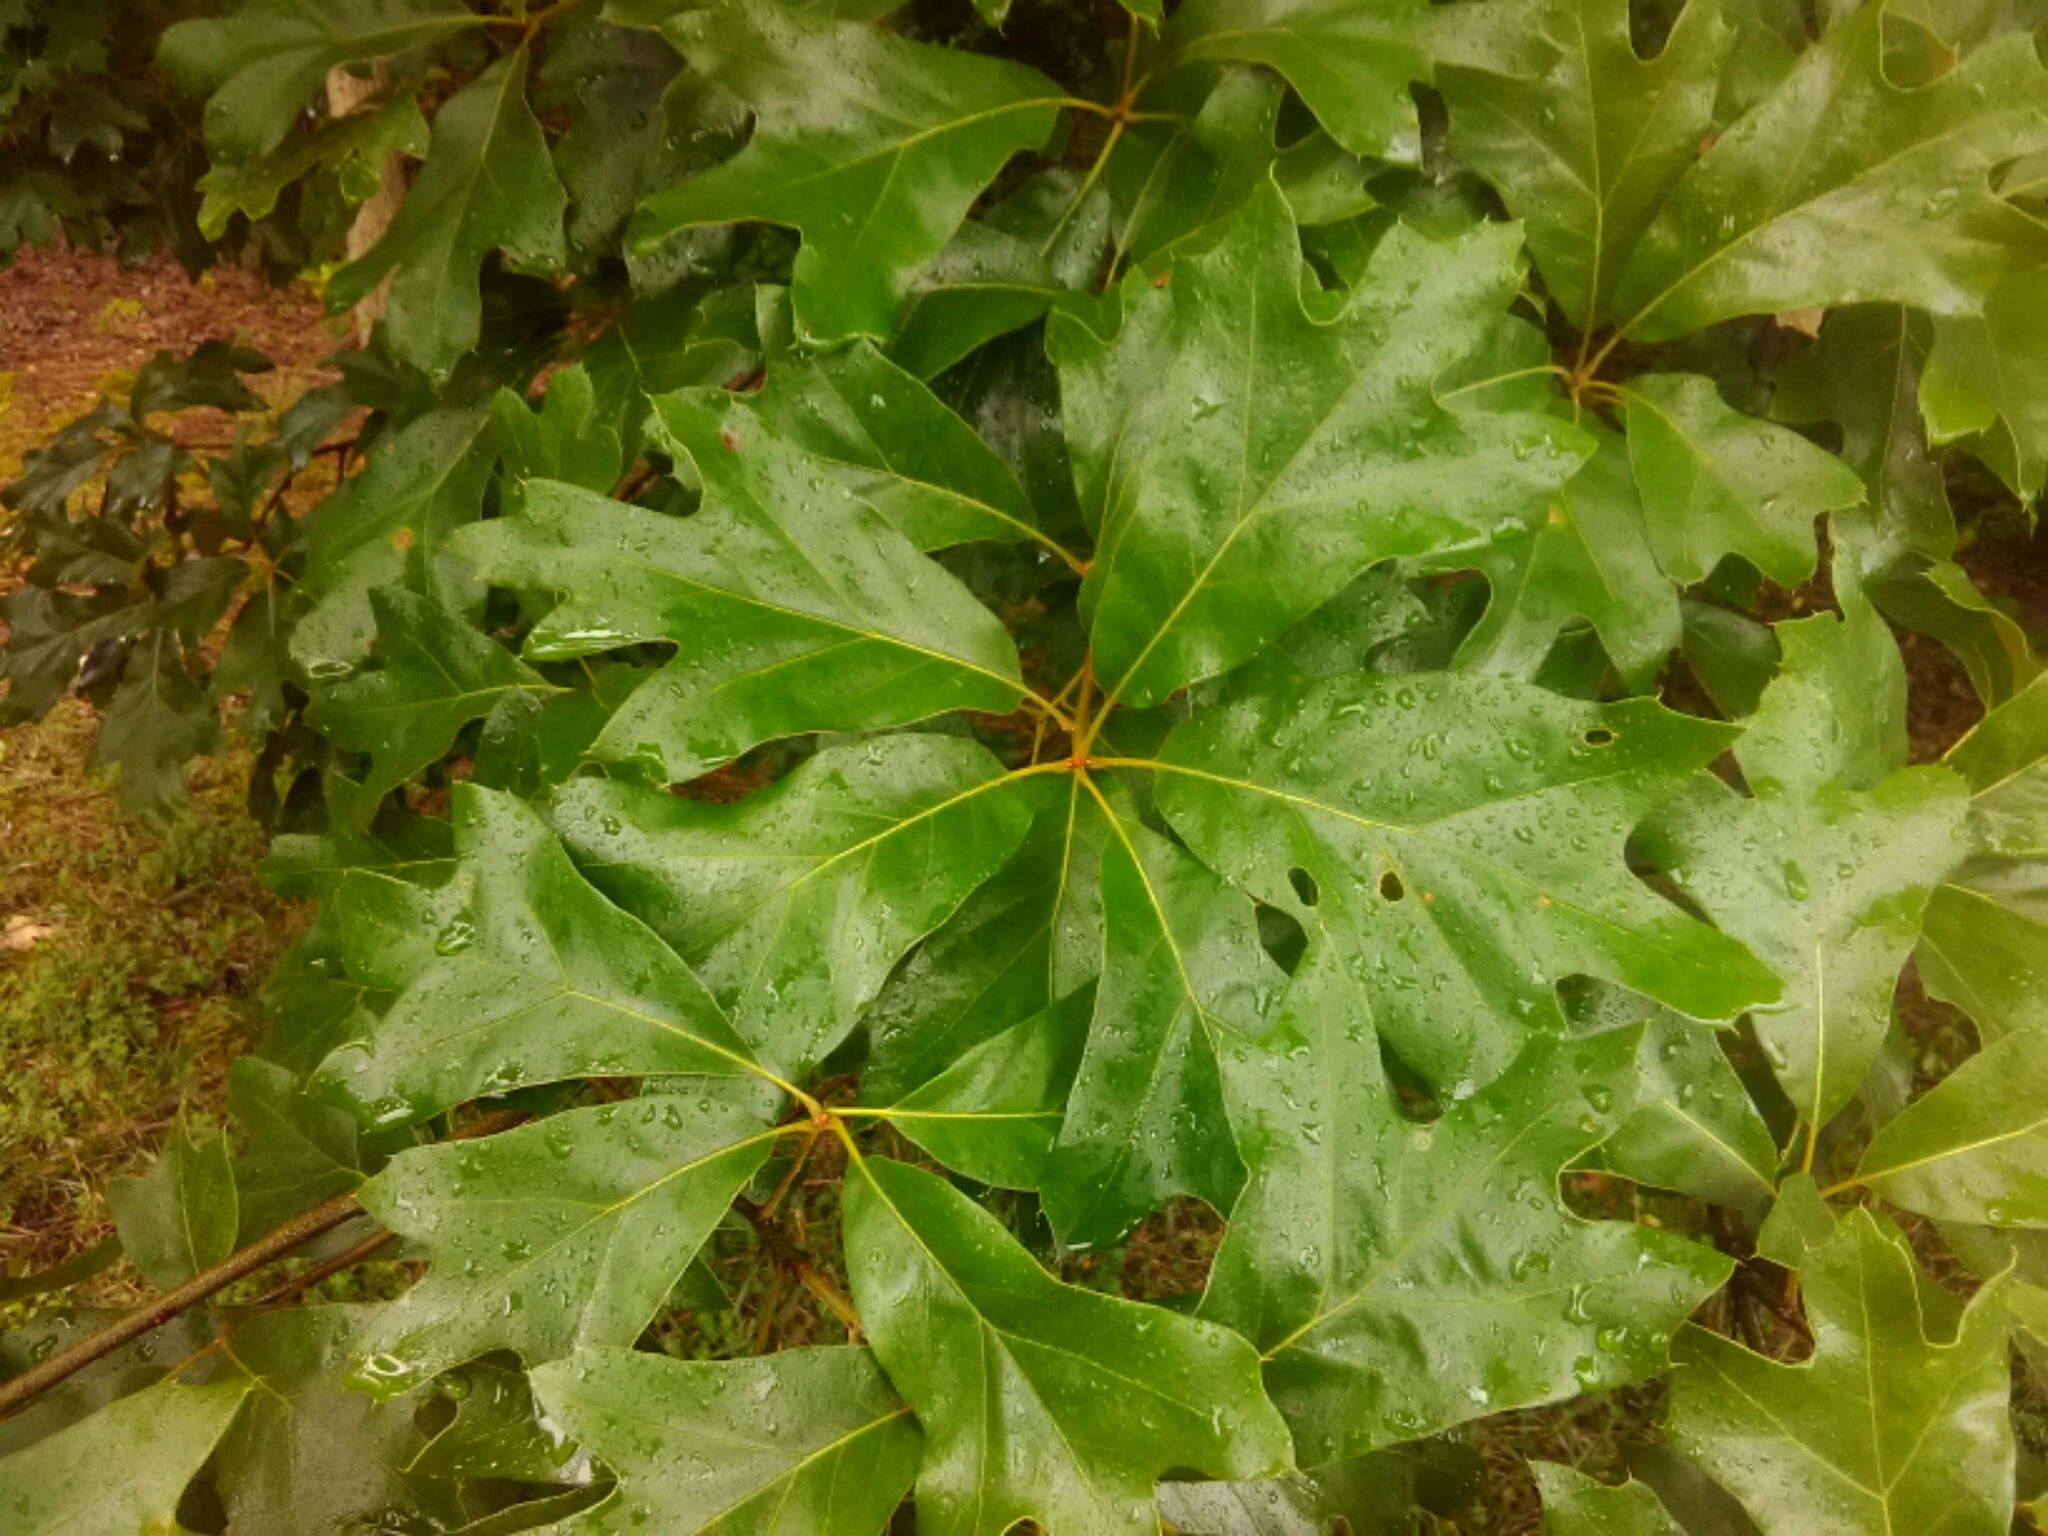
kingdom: Plantae
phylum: Tracheophyta
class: Magnoliopsida
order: Fagales
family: Fagaceae
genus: Quercus
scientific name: Quercus falcata
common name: Southern red oak
